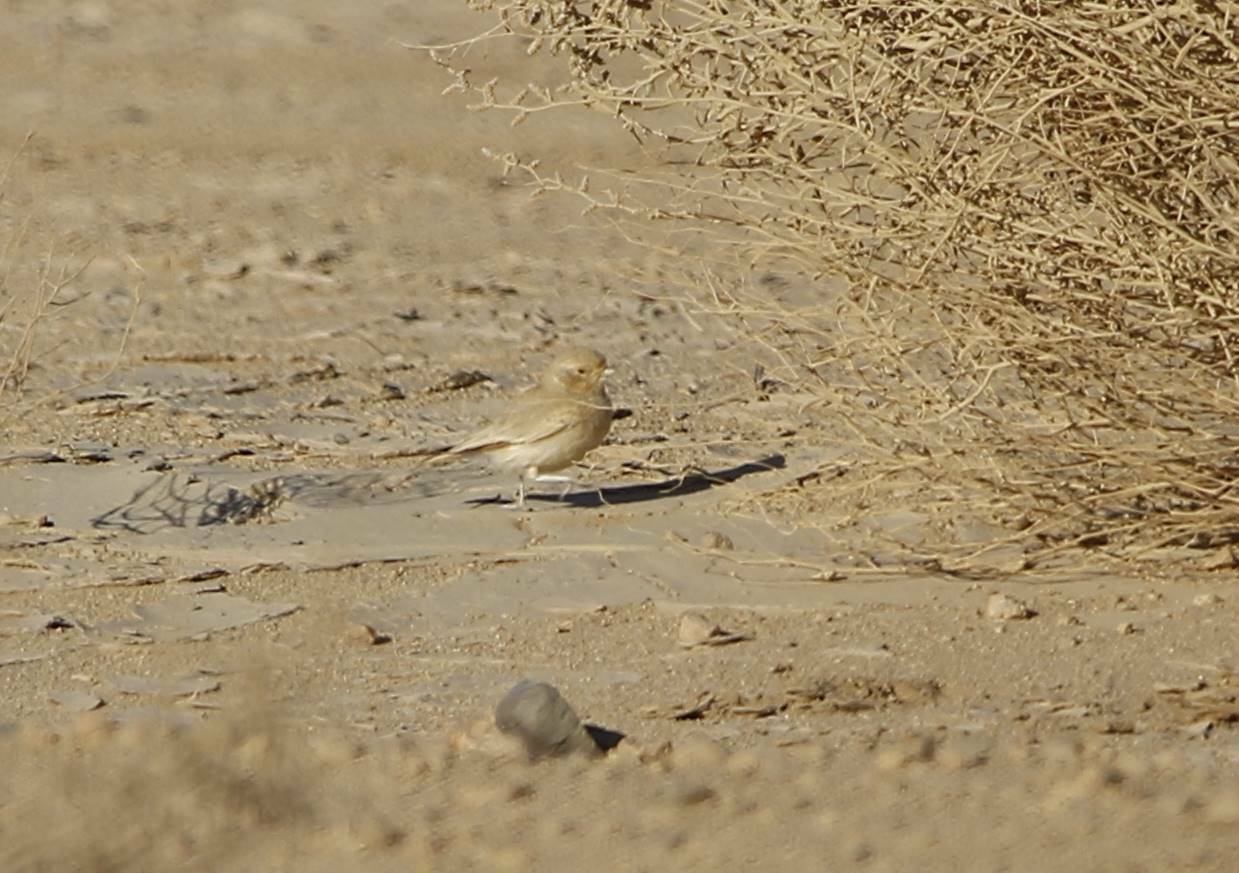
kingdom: Animalia
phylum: Chordata
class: Aves
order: Passeriformes
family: Alaudidae
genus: Ammomanes
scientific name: Ammomanes cinctura
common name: Bar-tailed lark
